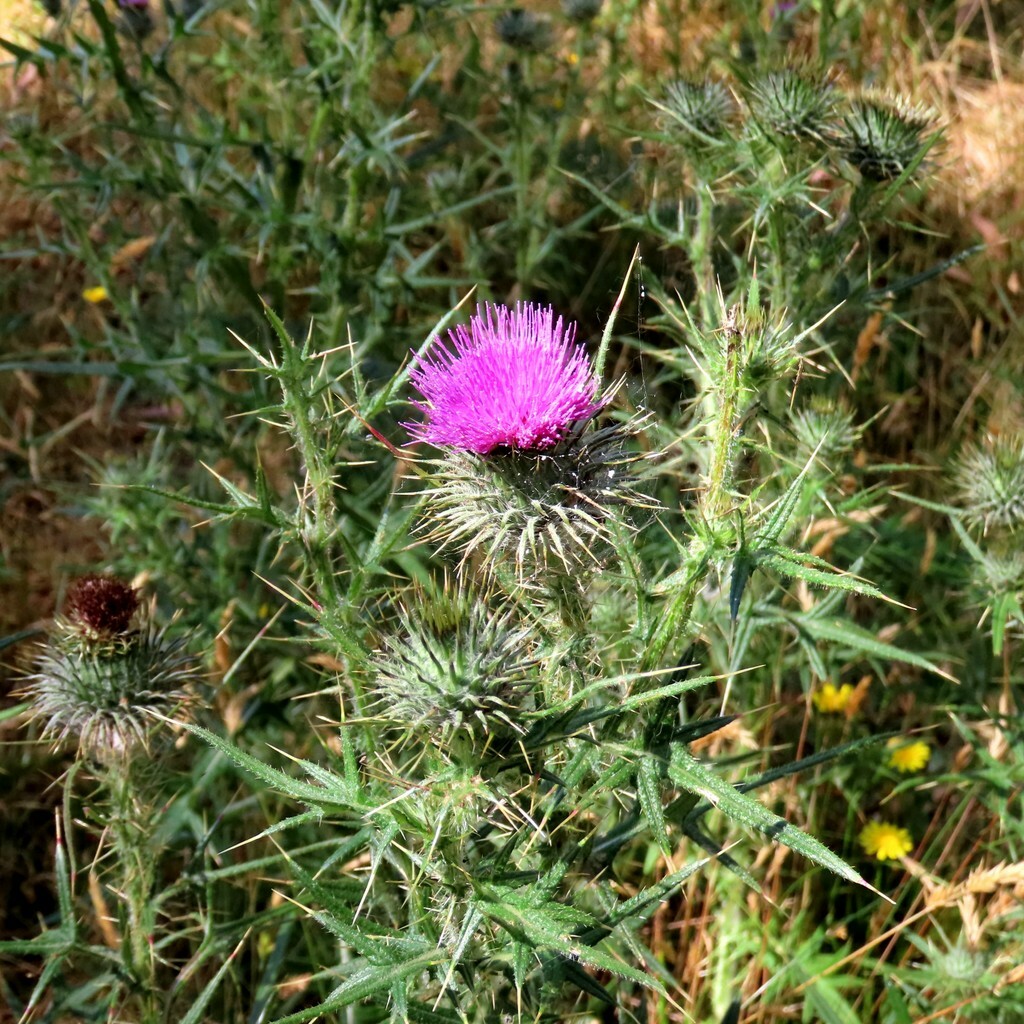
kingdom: Plantae
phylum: Tracheophyta
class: Magnoliopsida
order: Asterales
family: Asteraceae
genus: Cirsium
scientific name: Cirsium vulgare
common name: Bull thistle
